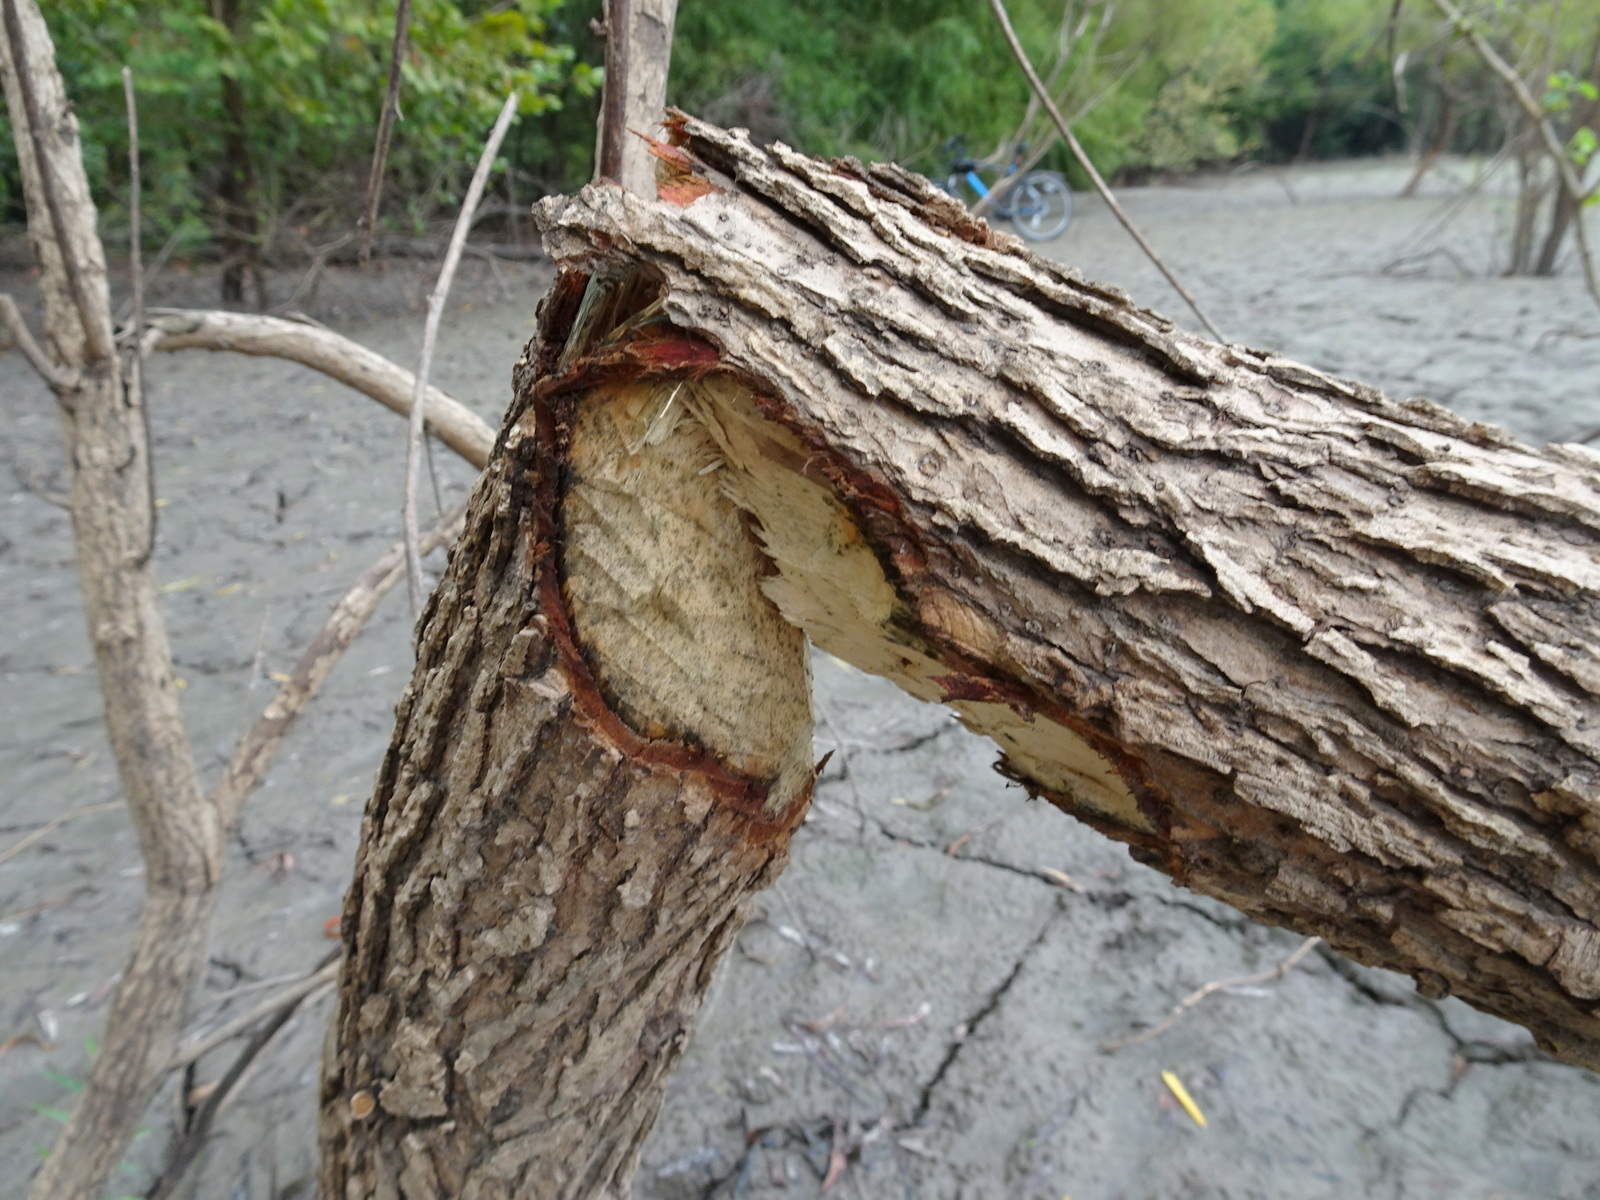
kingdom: Animalia
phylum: Chordata
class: Mammalia
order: Rodentia
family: Castoridae
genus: Castor
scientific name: Castor canadensis
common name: American beaver
